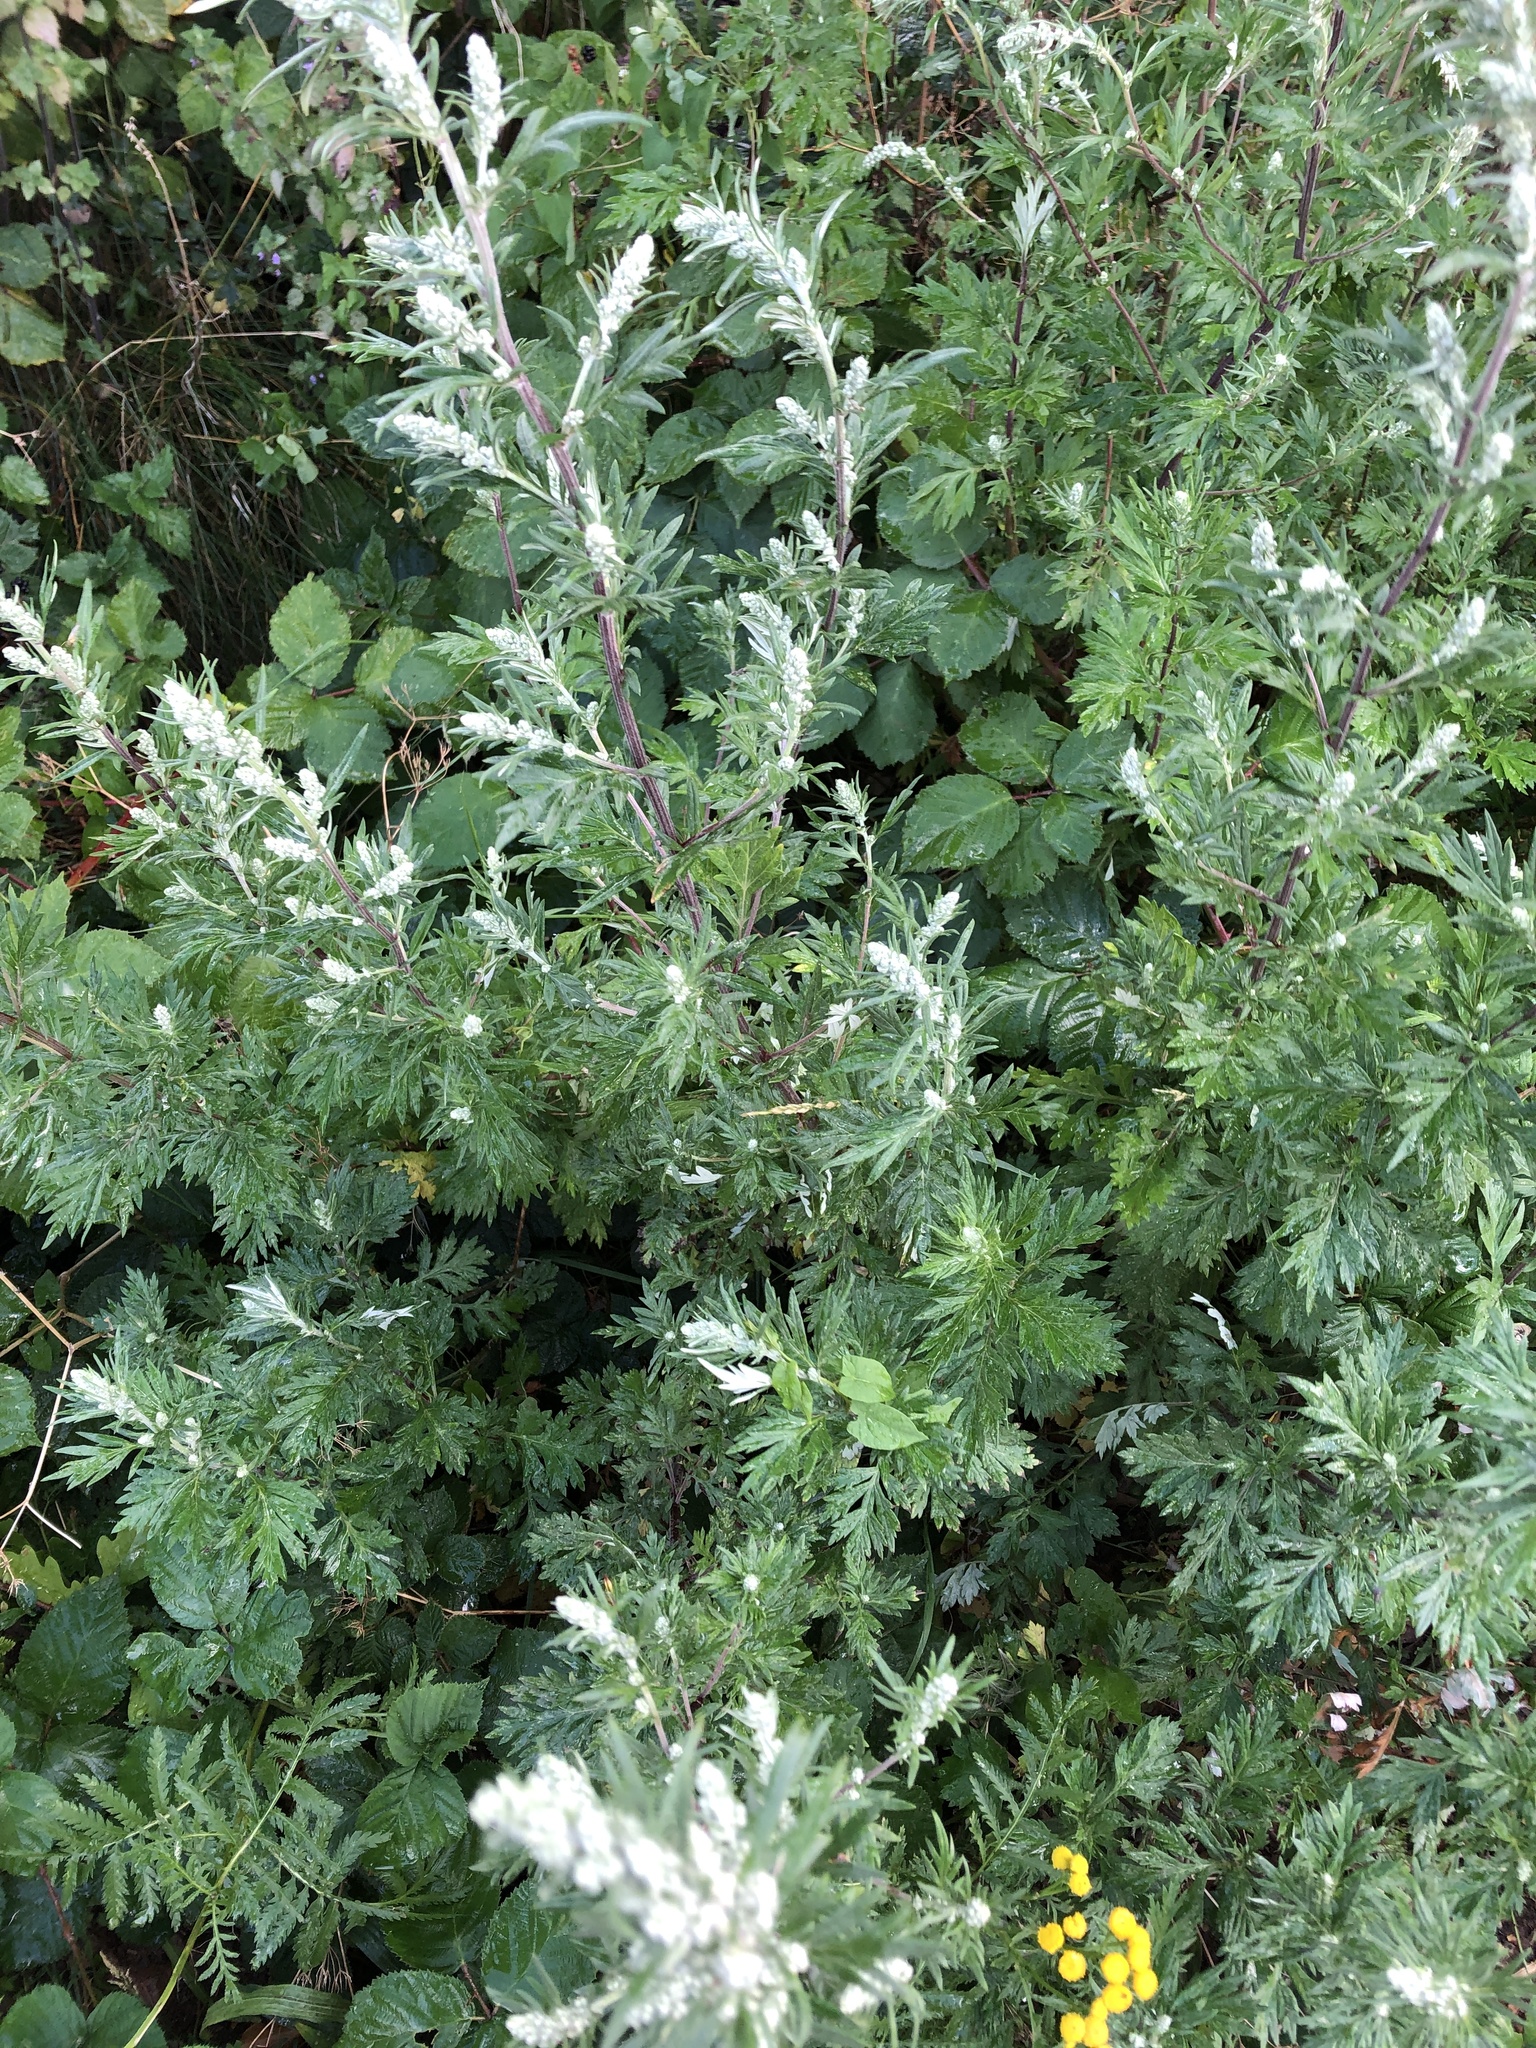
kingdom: Plantae
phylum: Tracheophyta
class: Magnoliopsida
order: Asterales
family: Asteraceae
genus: Artemisia
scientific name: Artemisia vulgaris
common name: Mugwort
